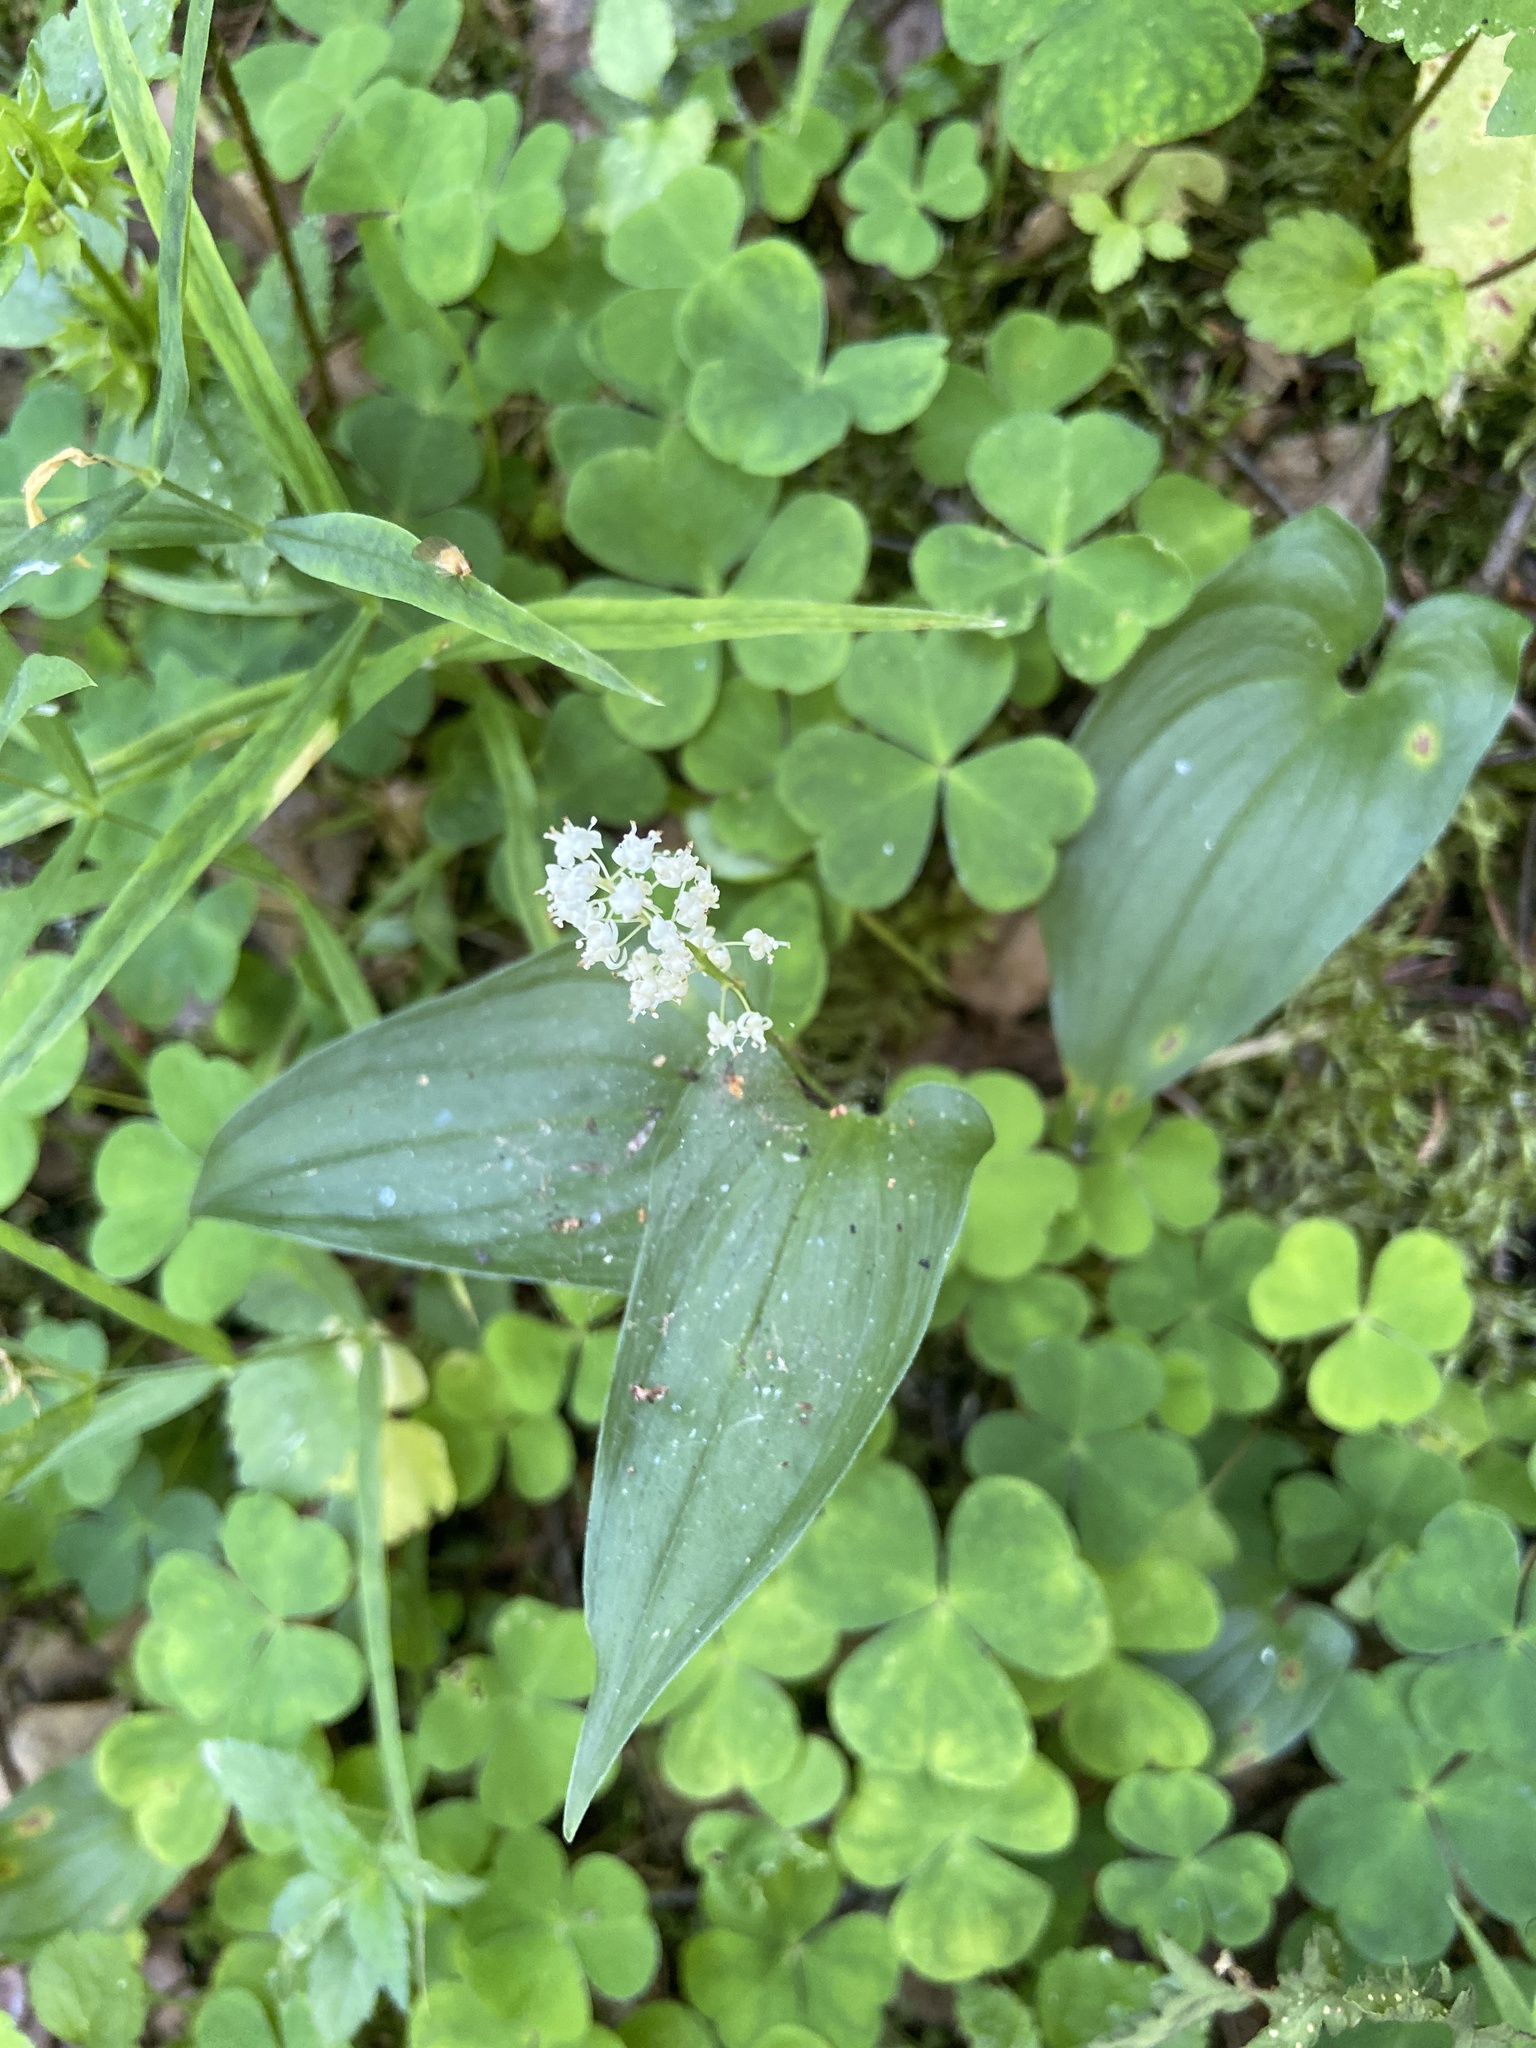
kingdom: Plantae
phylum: Tracheophyta
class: Liliopsida
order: Asparagales
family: Asparagaceae
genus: Maianthemum
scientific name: Maianthemum bifolium
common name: May lily
